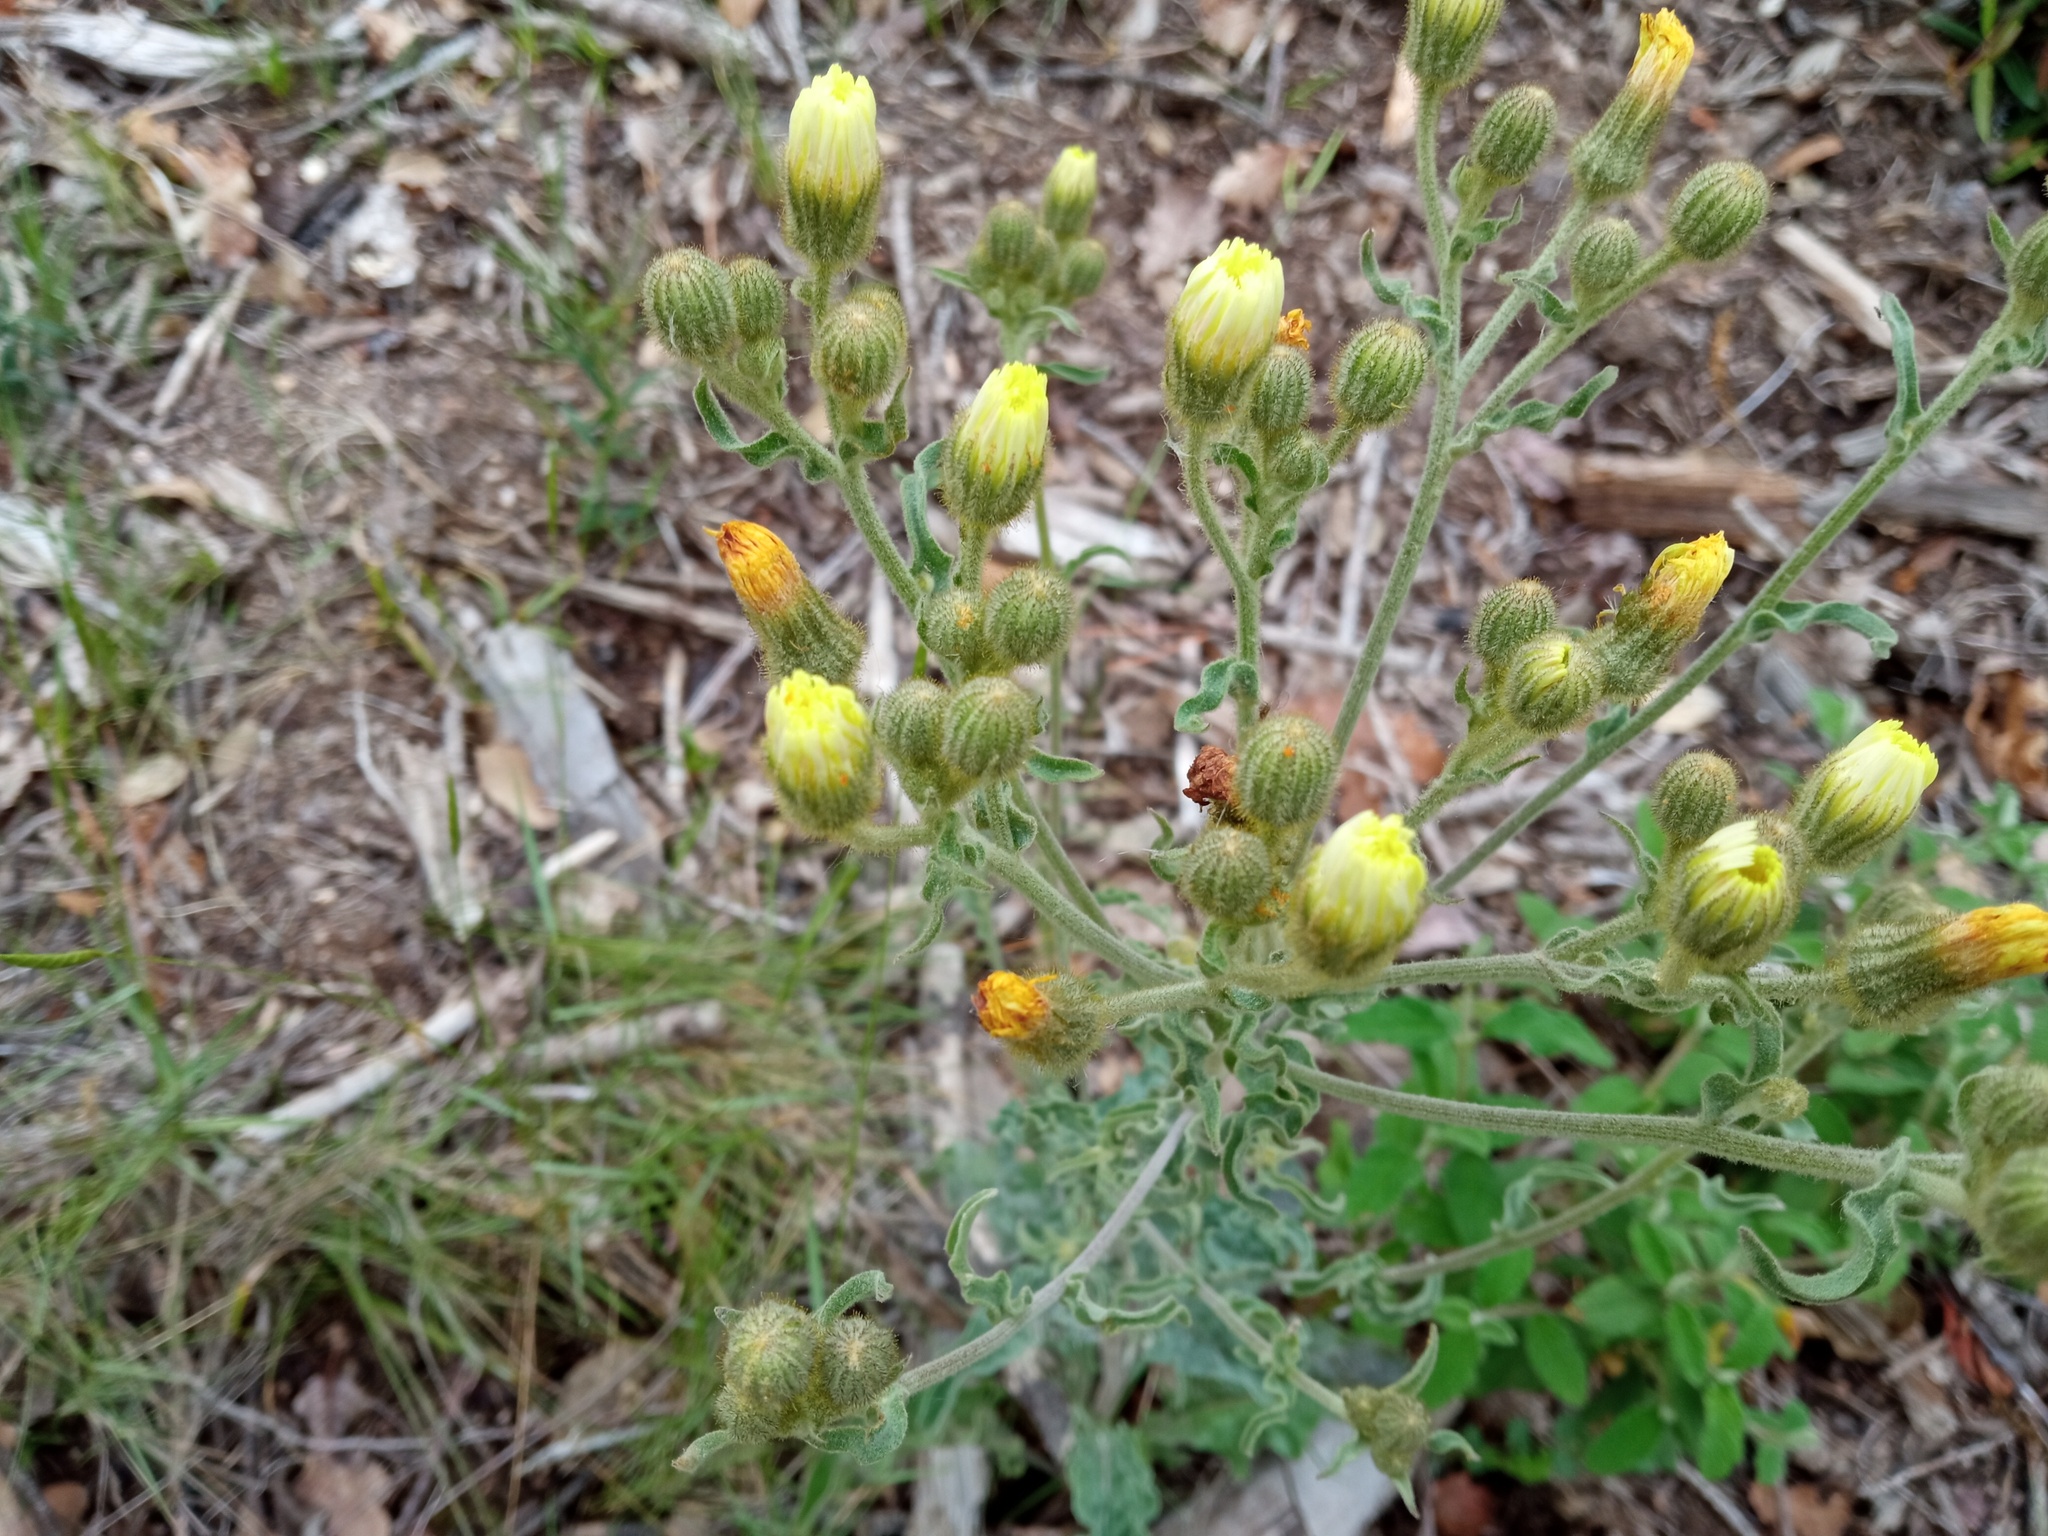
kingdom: Plantae
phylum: Tracheophyta
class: Magnoliopsida
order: Asterales
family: Asteraceae
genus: Andryala
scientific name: Andryala integrifolia
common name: Common andryala
